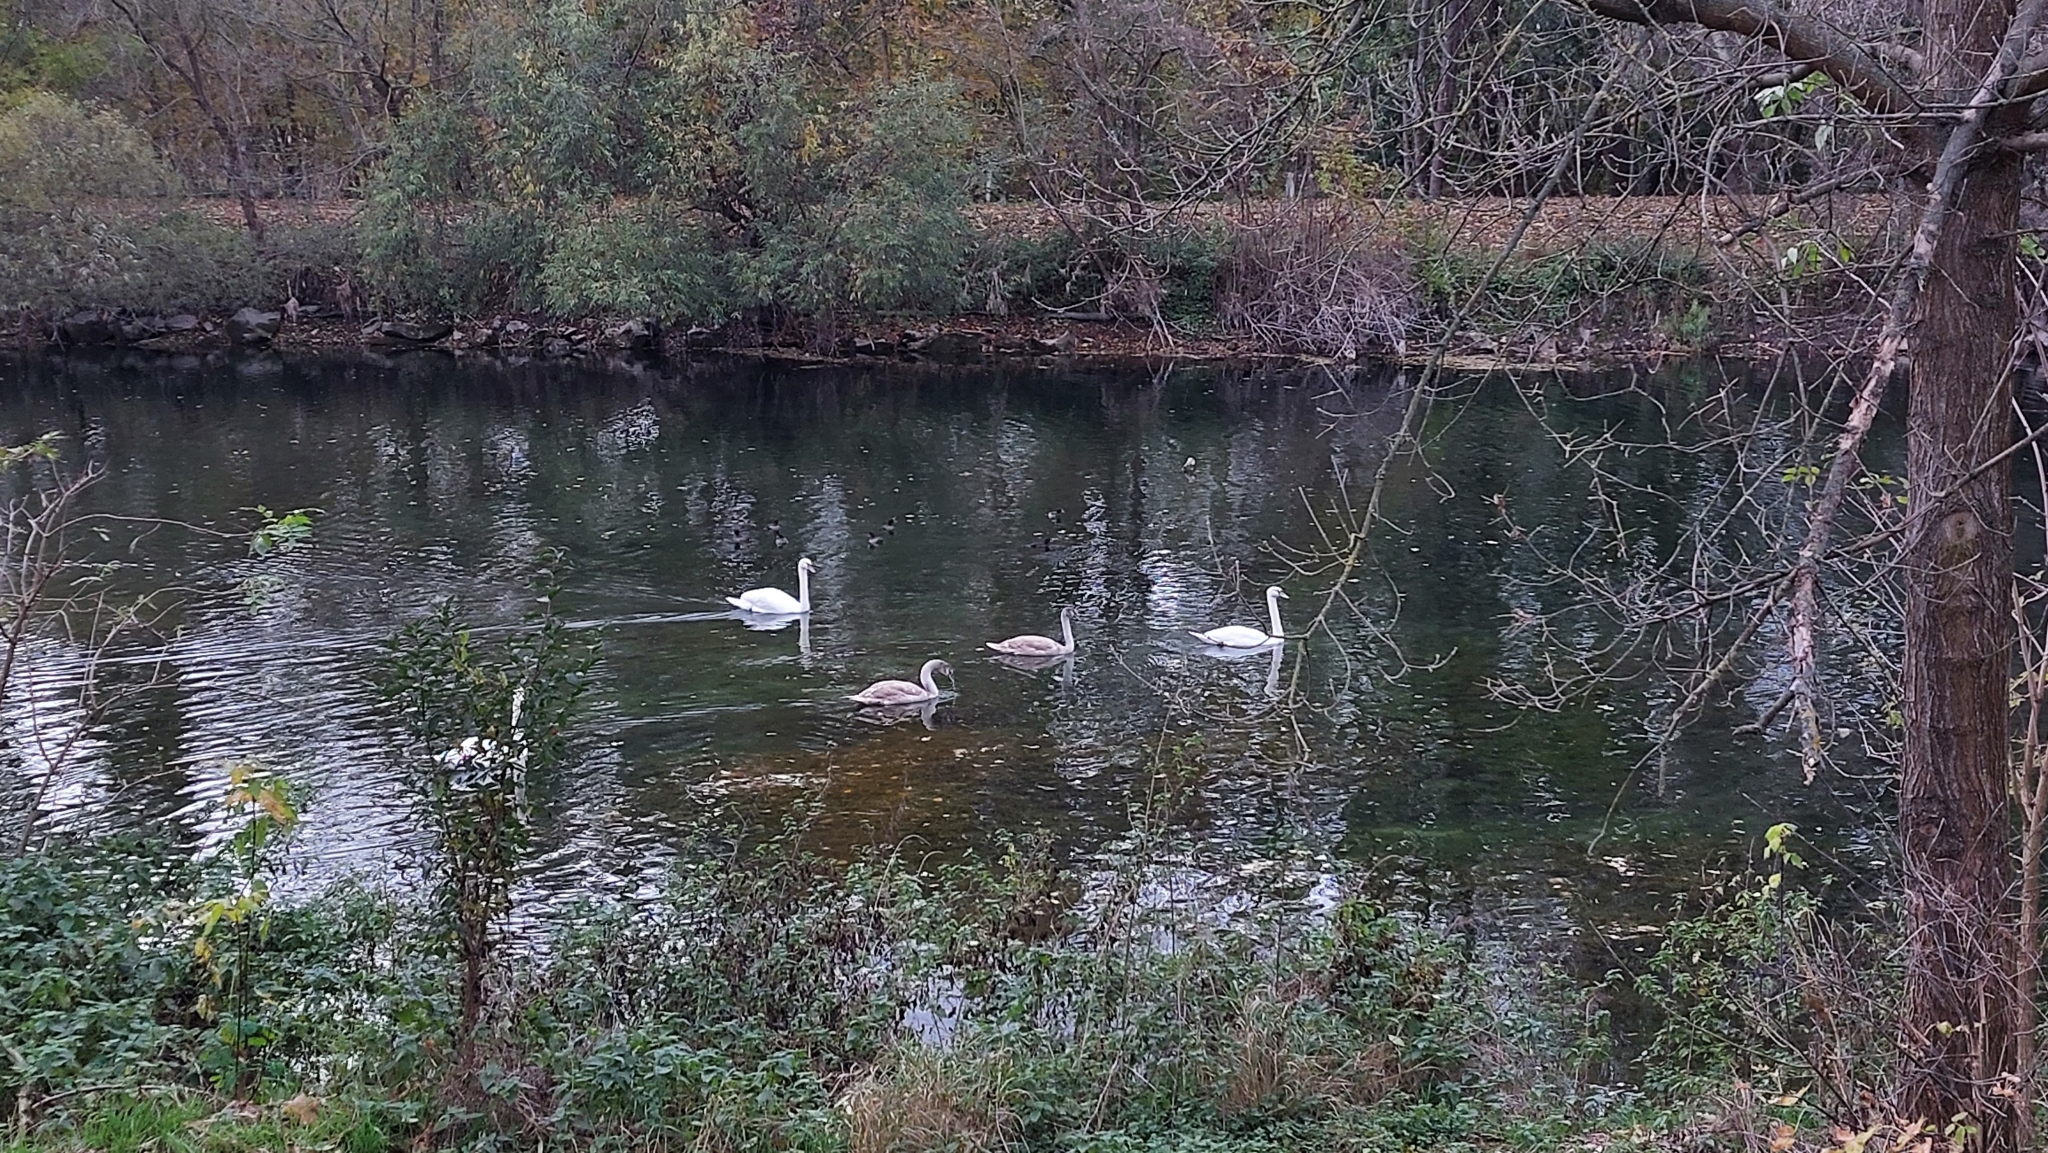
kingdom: Animalia
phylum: Chordata
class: Aves
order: Anseriformes
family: Anatidae
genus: Cygnus
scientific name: Cygnus olor
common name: Mute swan
